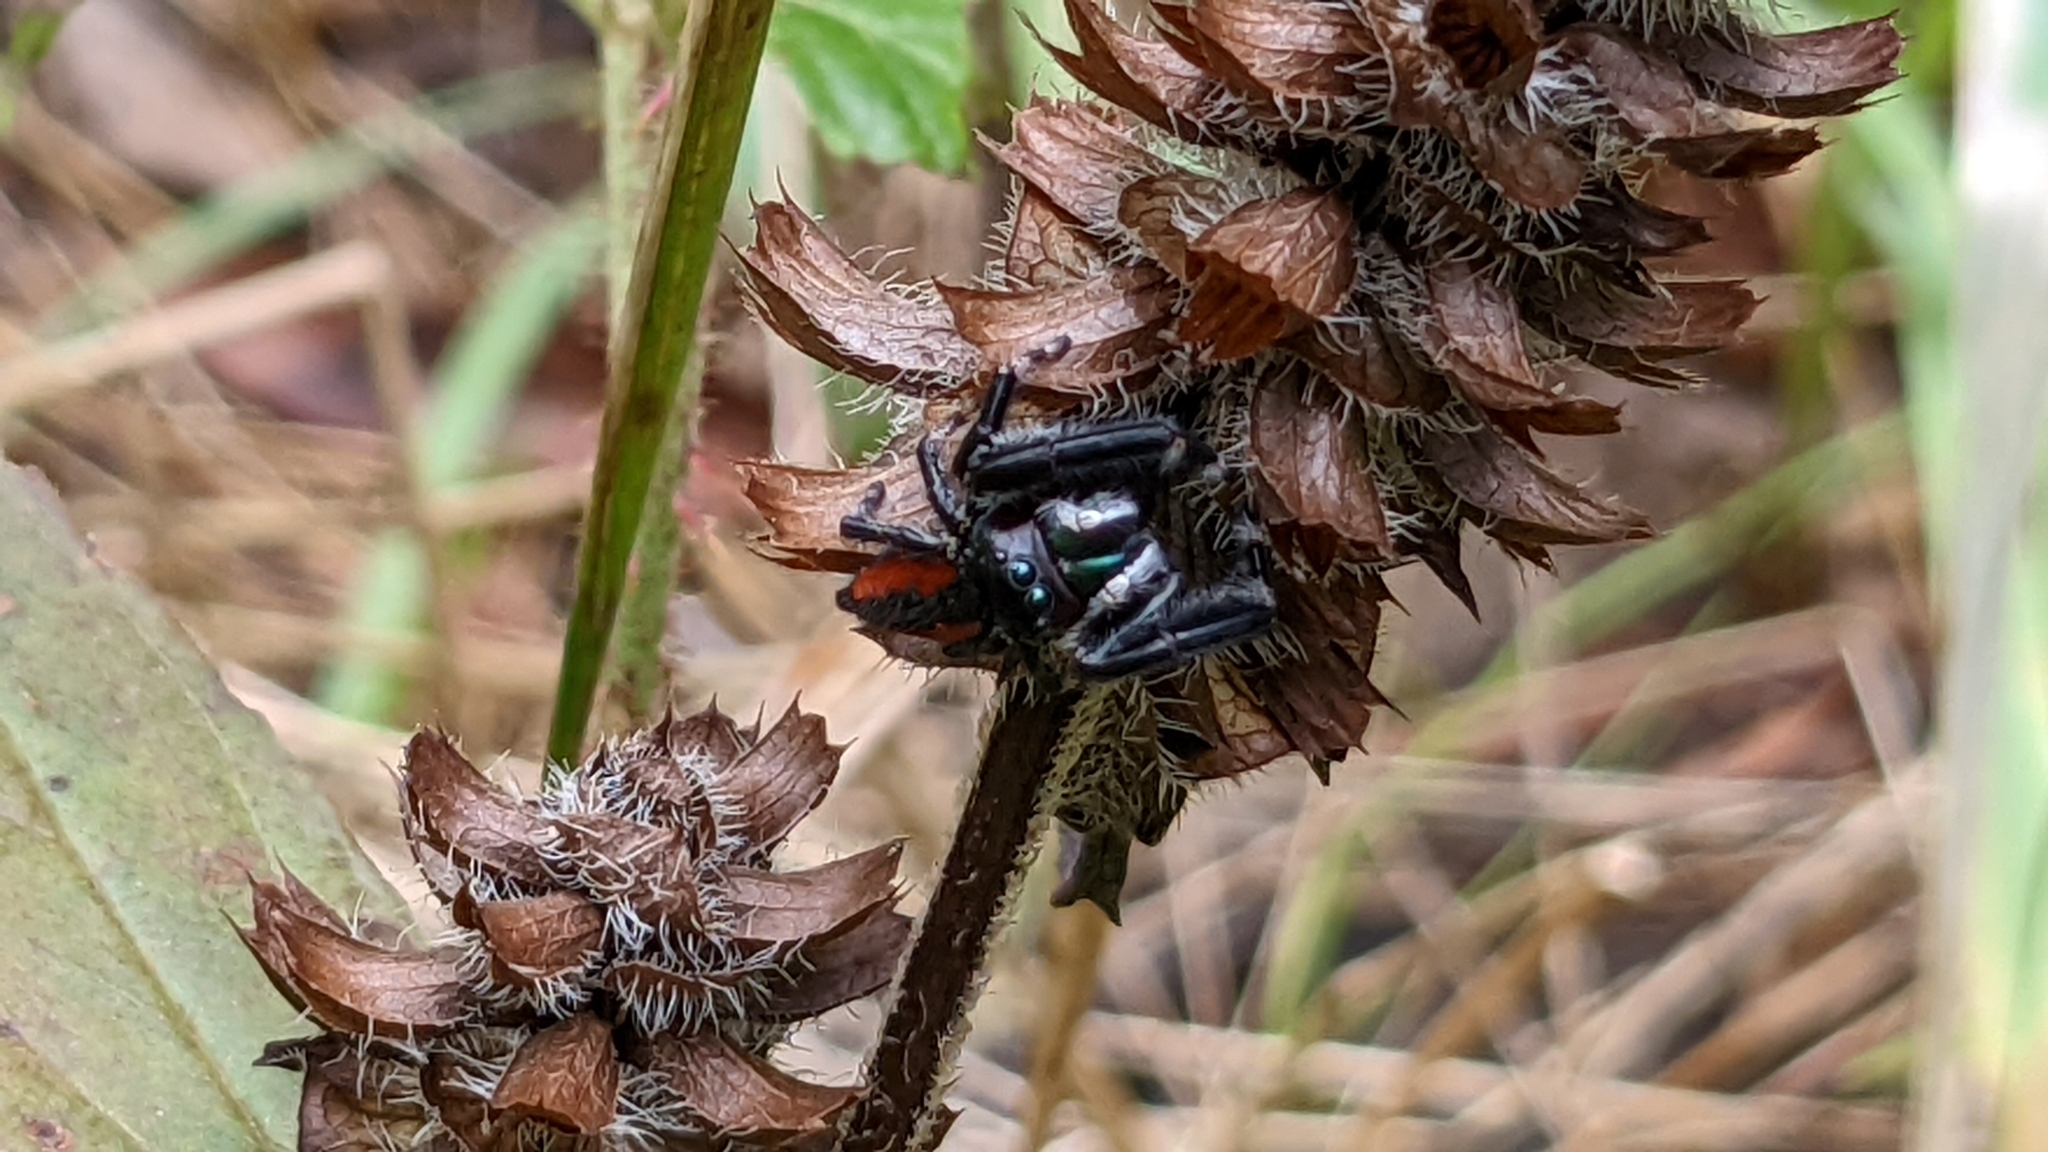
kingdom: Animalia
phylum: Arthropoda
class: Arachnida
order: Araneae
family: Salticidae
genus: Phidippus
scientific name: Phidippus clarus
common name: Brilliant jumping spider
